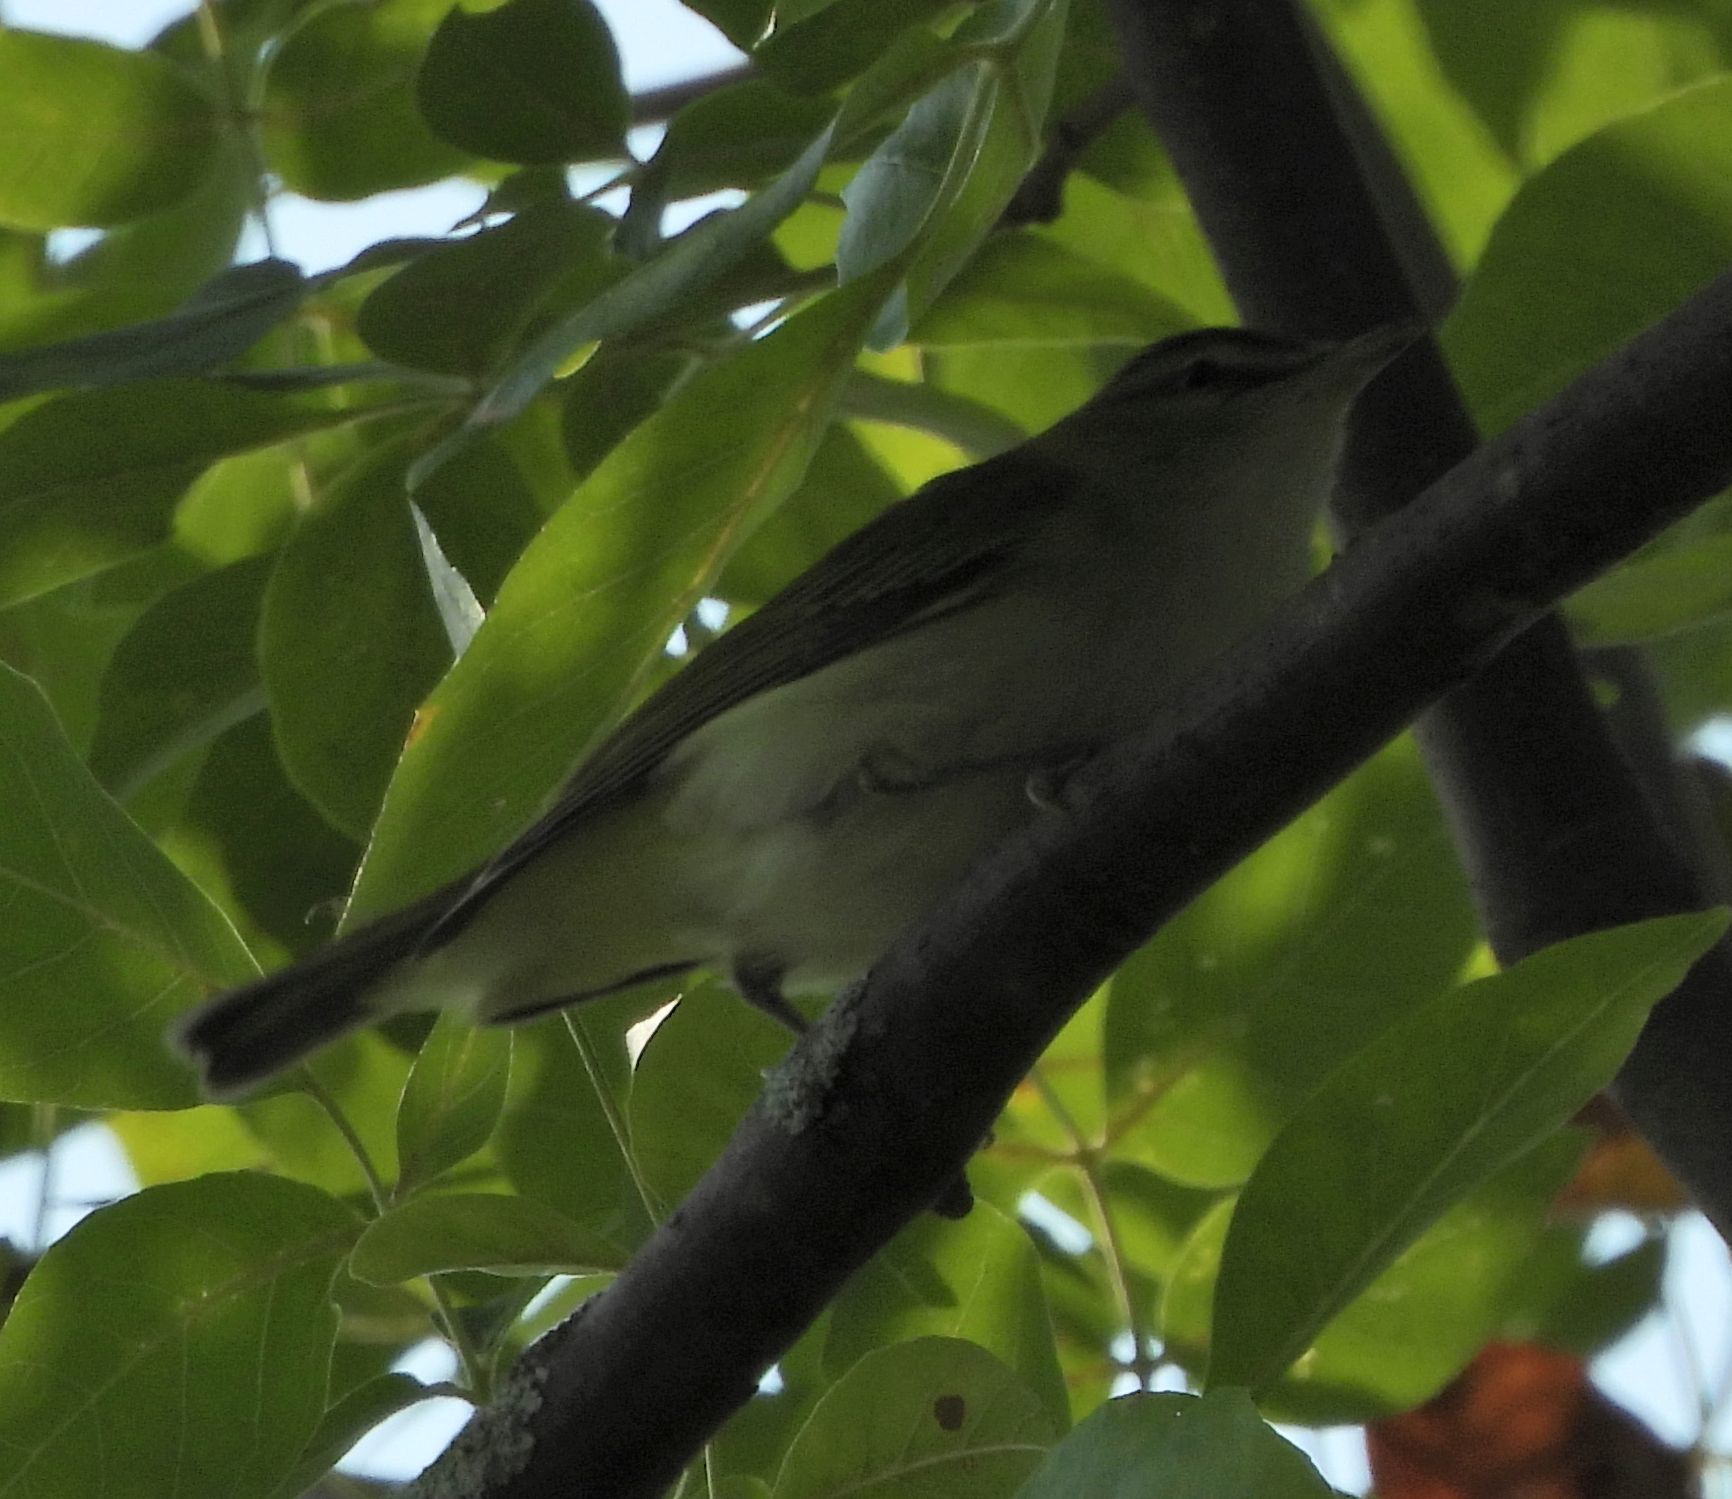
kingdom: Animalia
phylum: Chordata
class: Aves
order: Passeriformes
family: Vireonidae
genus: Vireo
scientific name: Vireo olivaceus
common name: Red-eyed vireo
